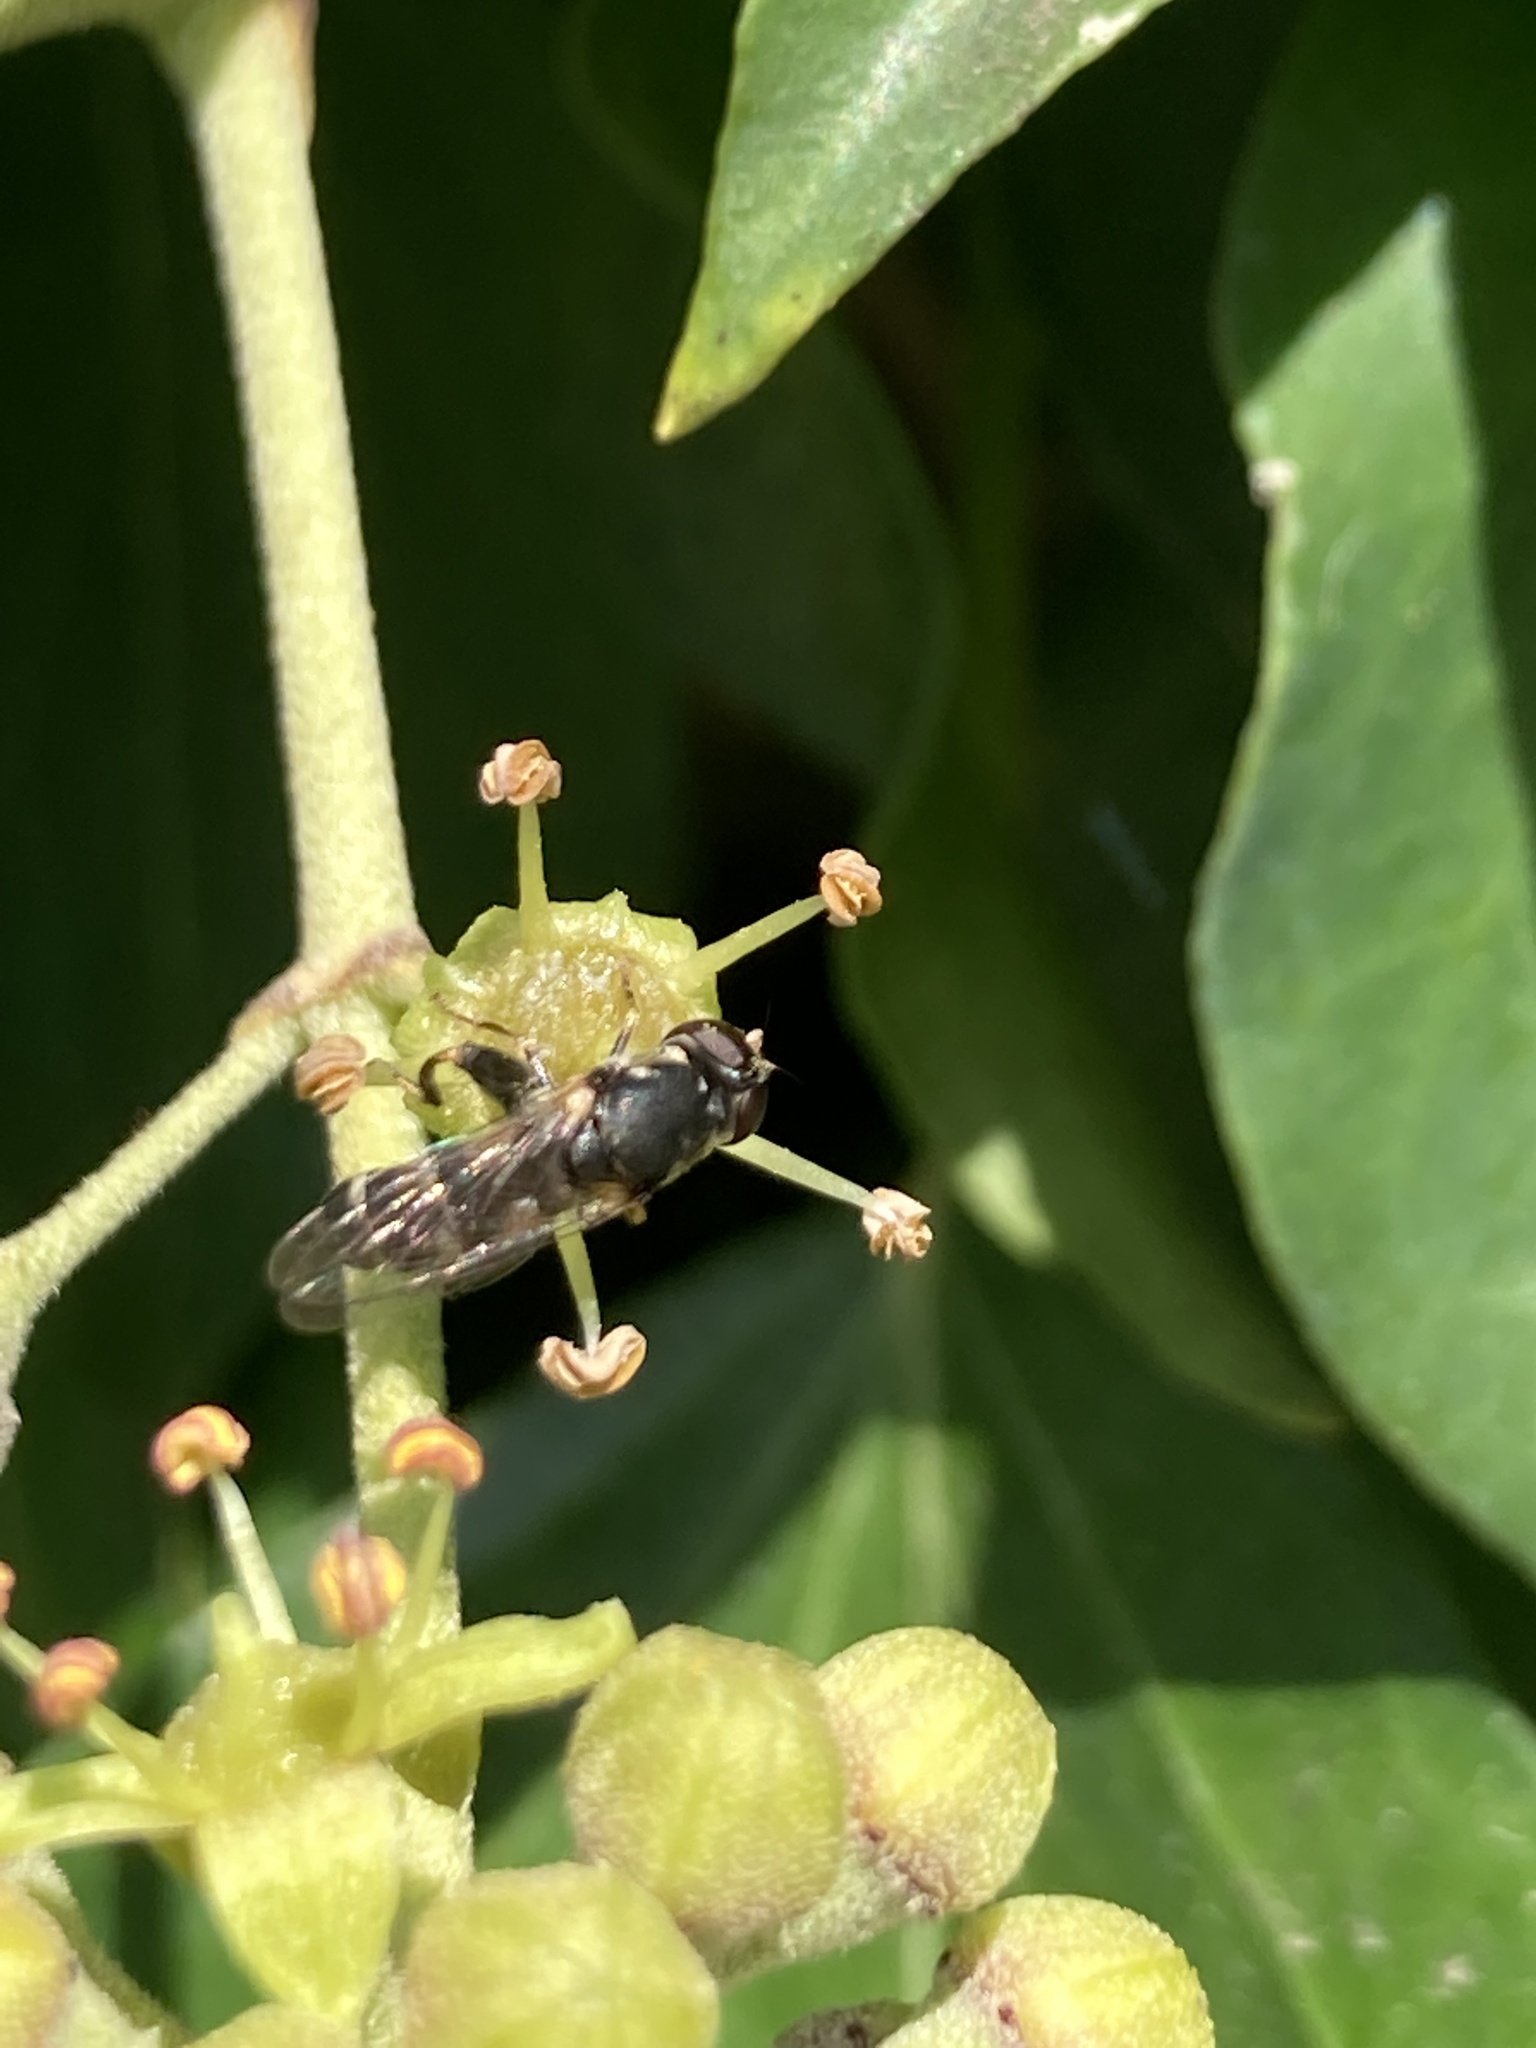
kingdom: Animalia
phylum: Arthropoda
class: Insecta
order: Diptera
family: Syrphidae
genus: Syritta
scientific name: Syritta pipiens
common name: Hover fly
